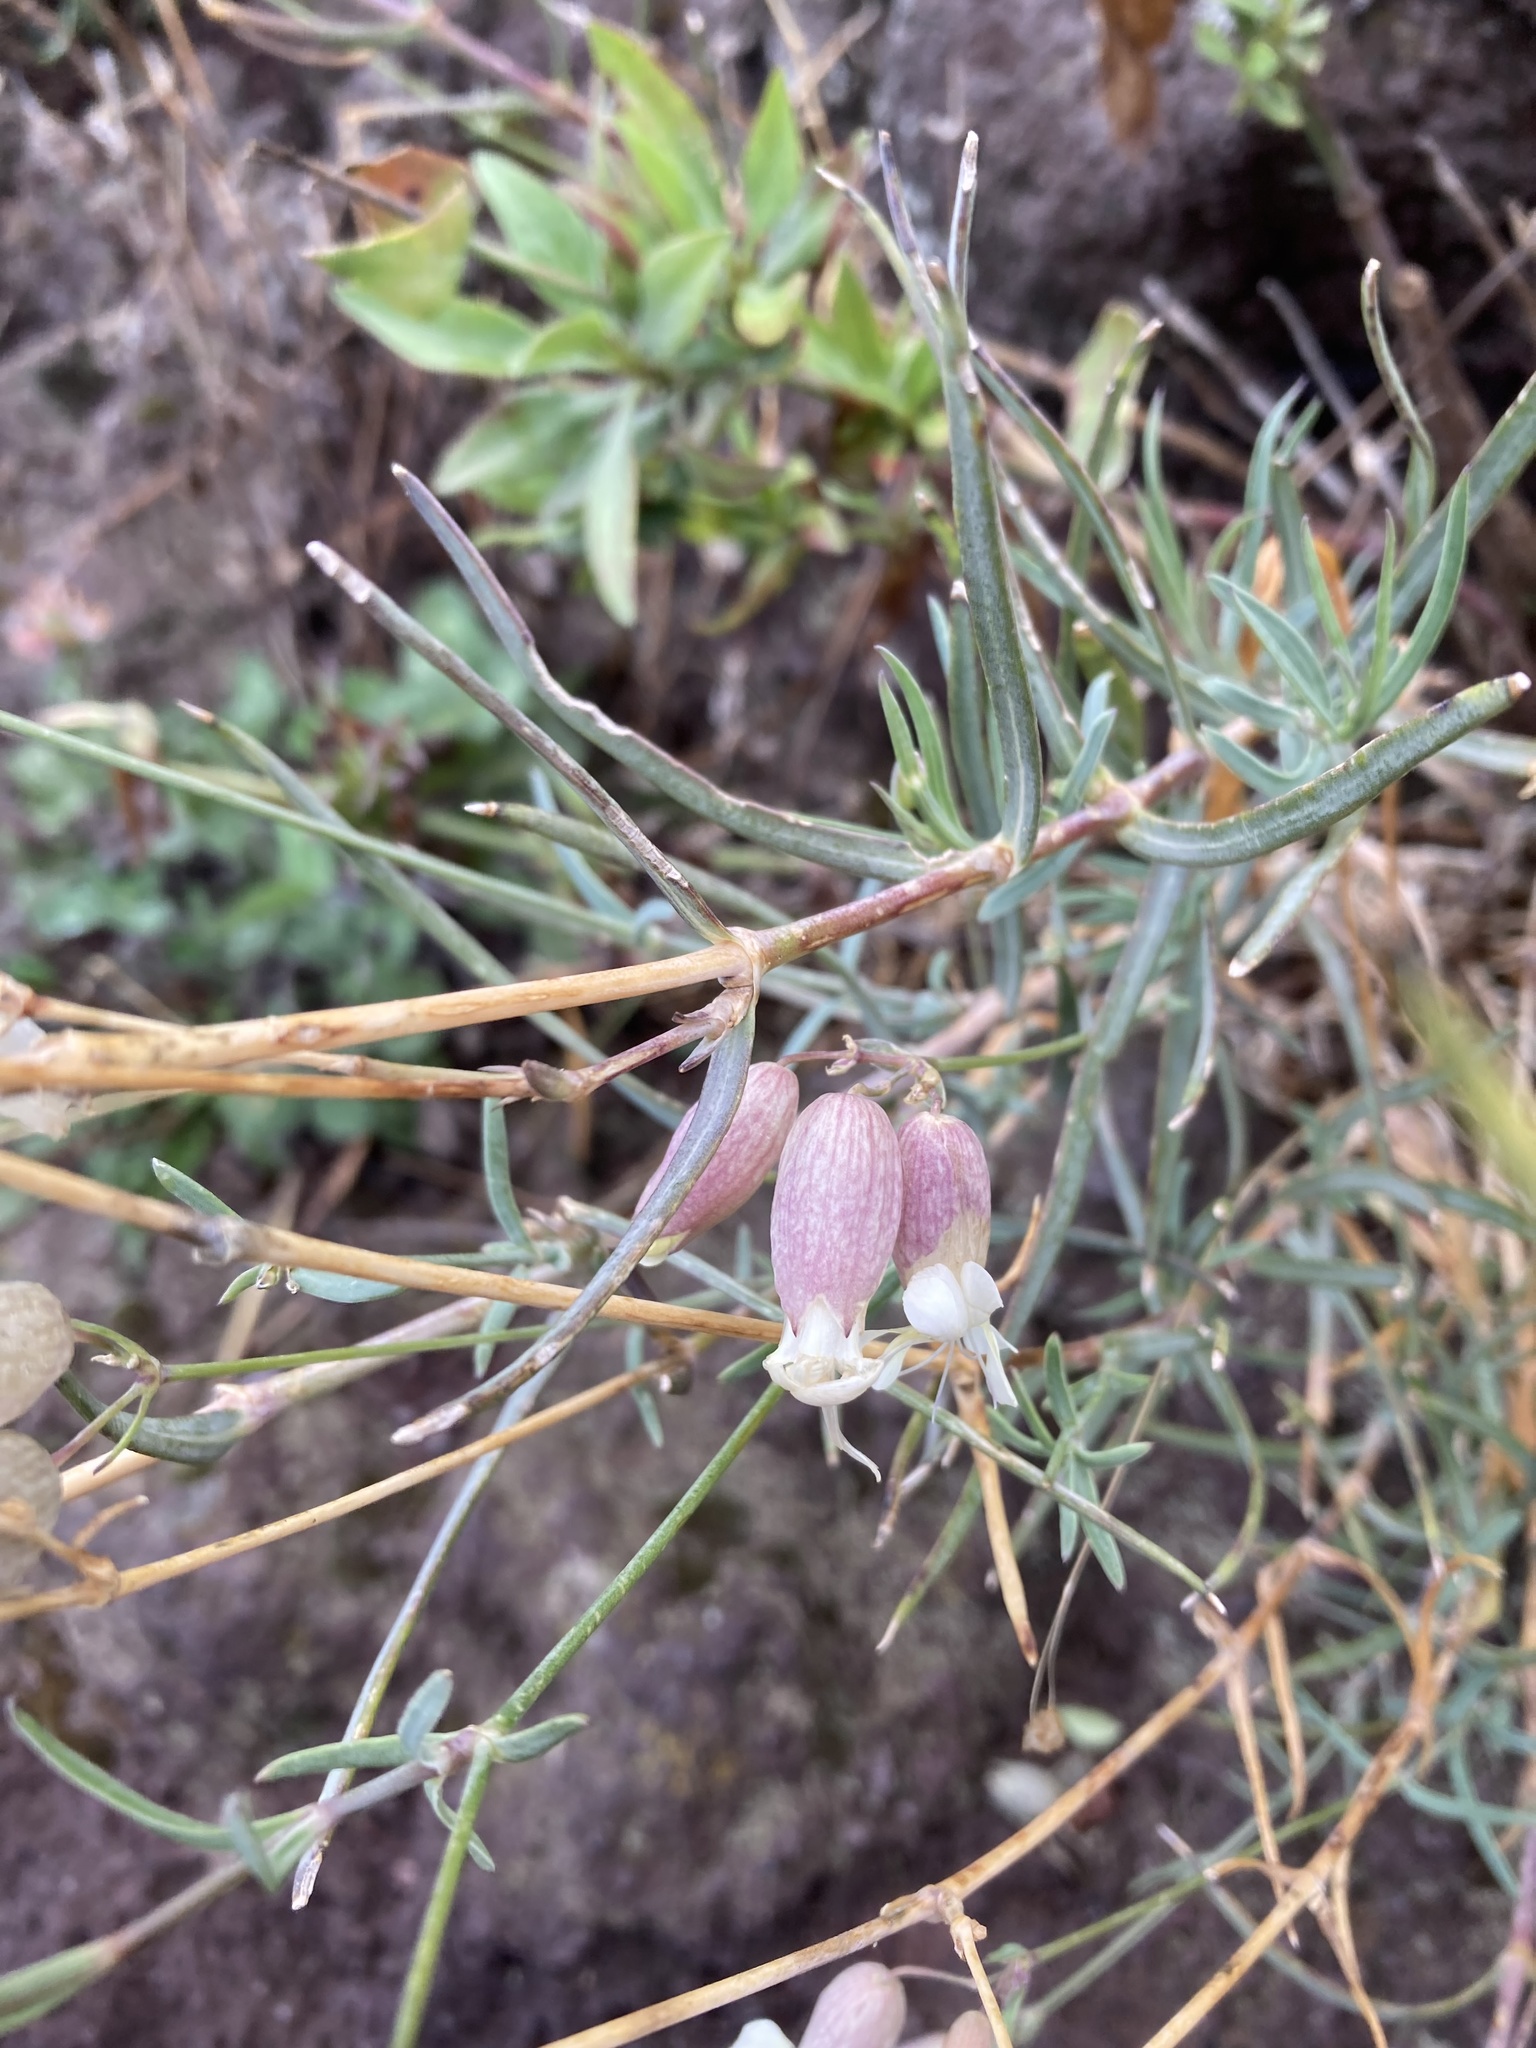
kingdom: Plantae
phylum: Tracheophyta
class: Magnoliopsida
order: Caryophyllales
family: Caryophyllaceae
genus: Silene
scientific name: Silene vulgaris
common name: Bladder campion
